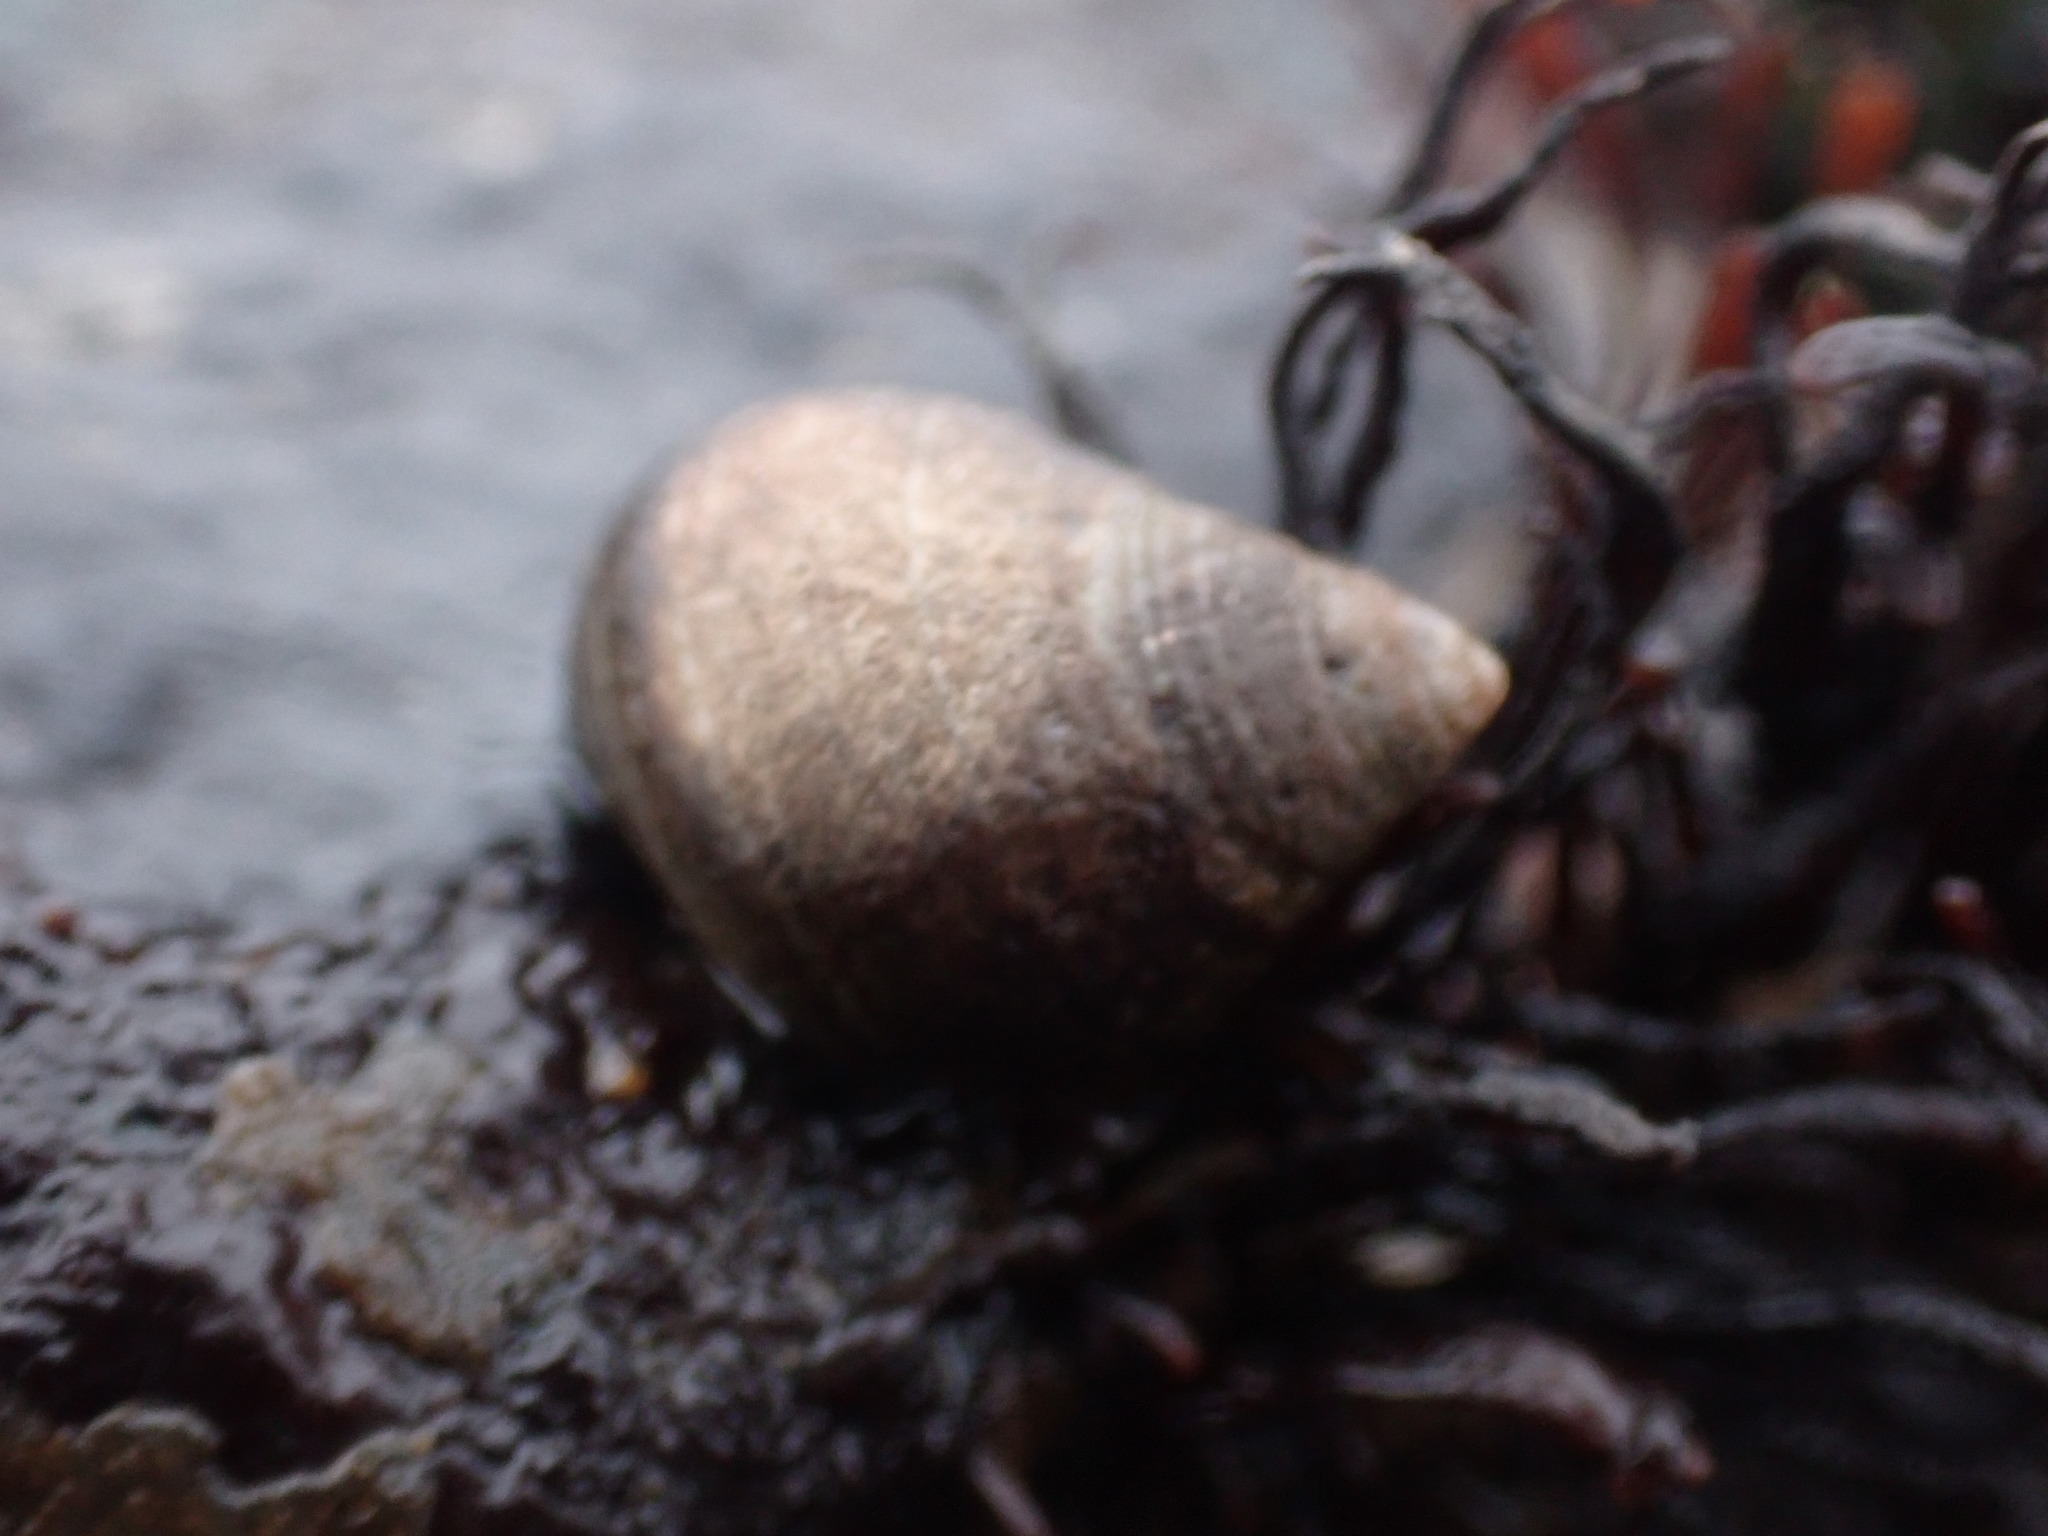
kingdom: Animalia
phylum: Mollusca
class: Gastropoda
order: Littorinimorpha
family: Littorinidae
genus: Littorina
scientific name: Littorina littorea
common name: Common periwinkle
